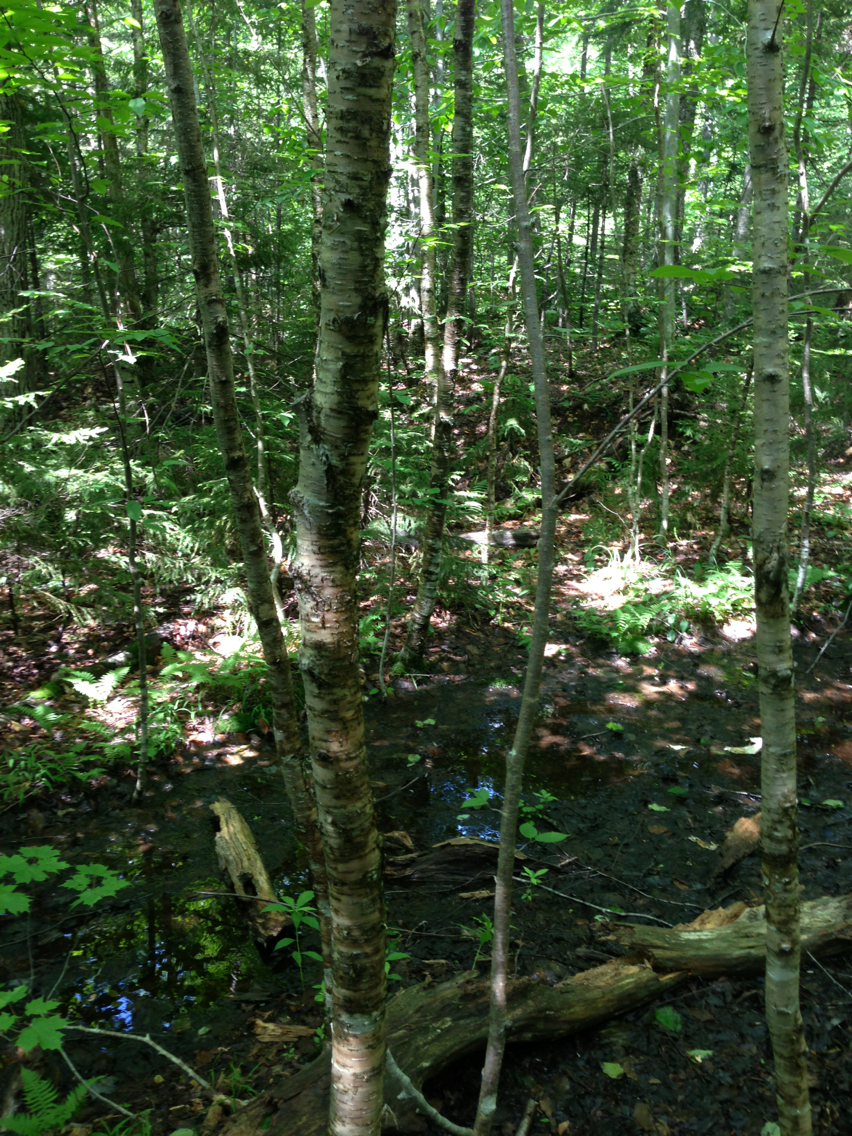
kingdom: Plantae
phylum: Tracheophyta
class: Magnoliopsida
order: Fagales
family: Betulaceae
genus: Betula
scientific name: Betula alleghaniensis
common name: Yellow birch
